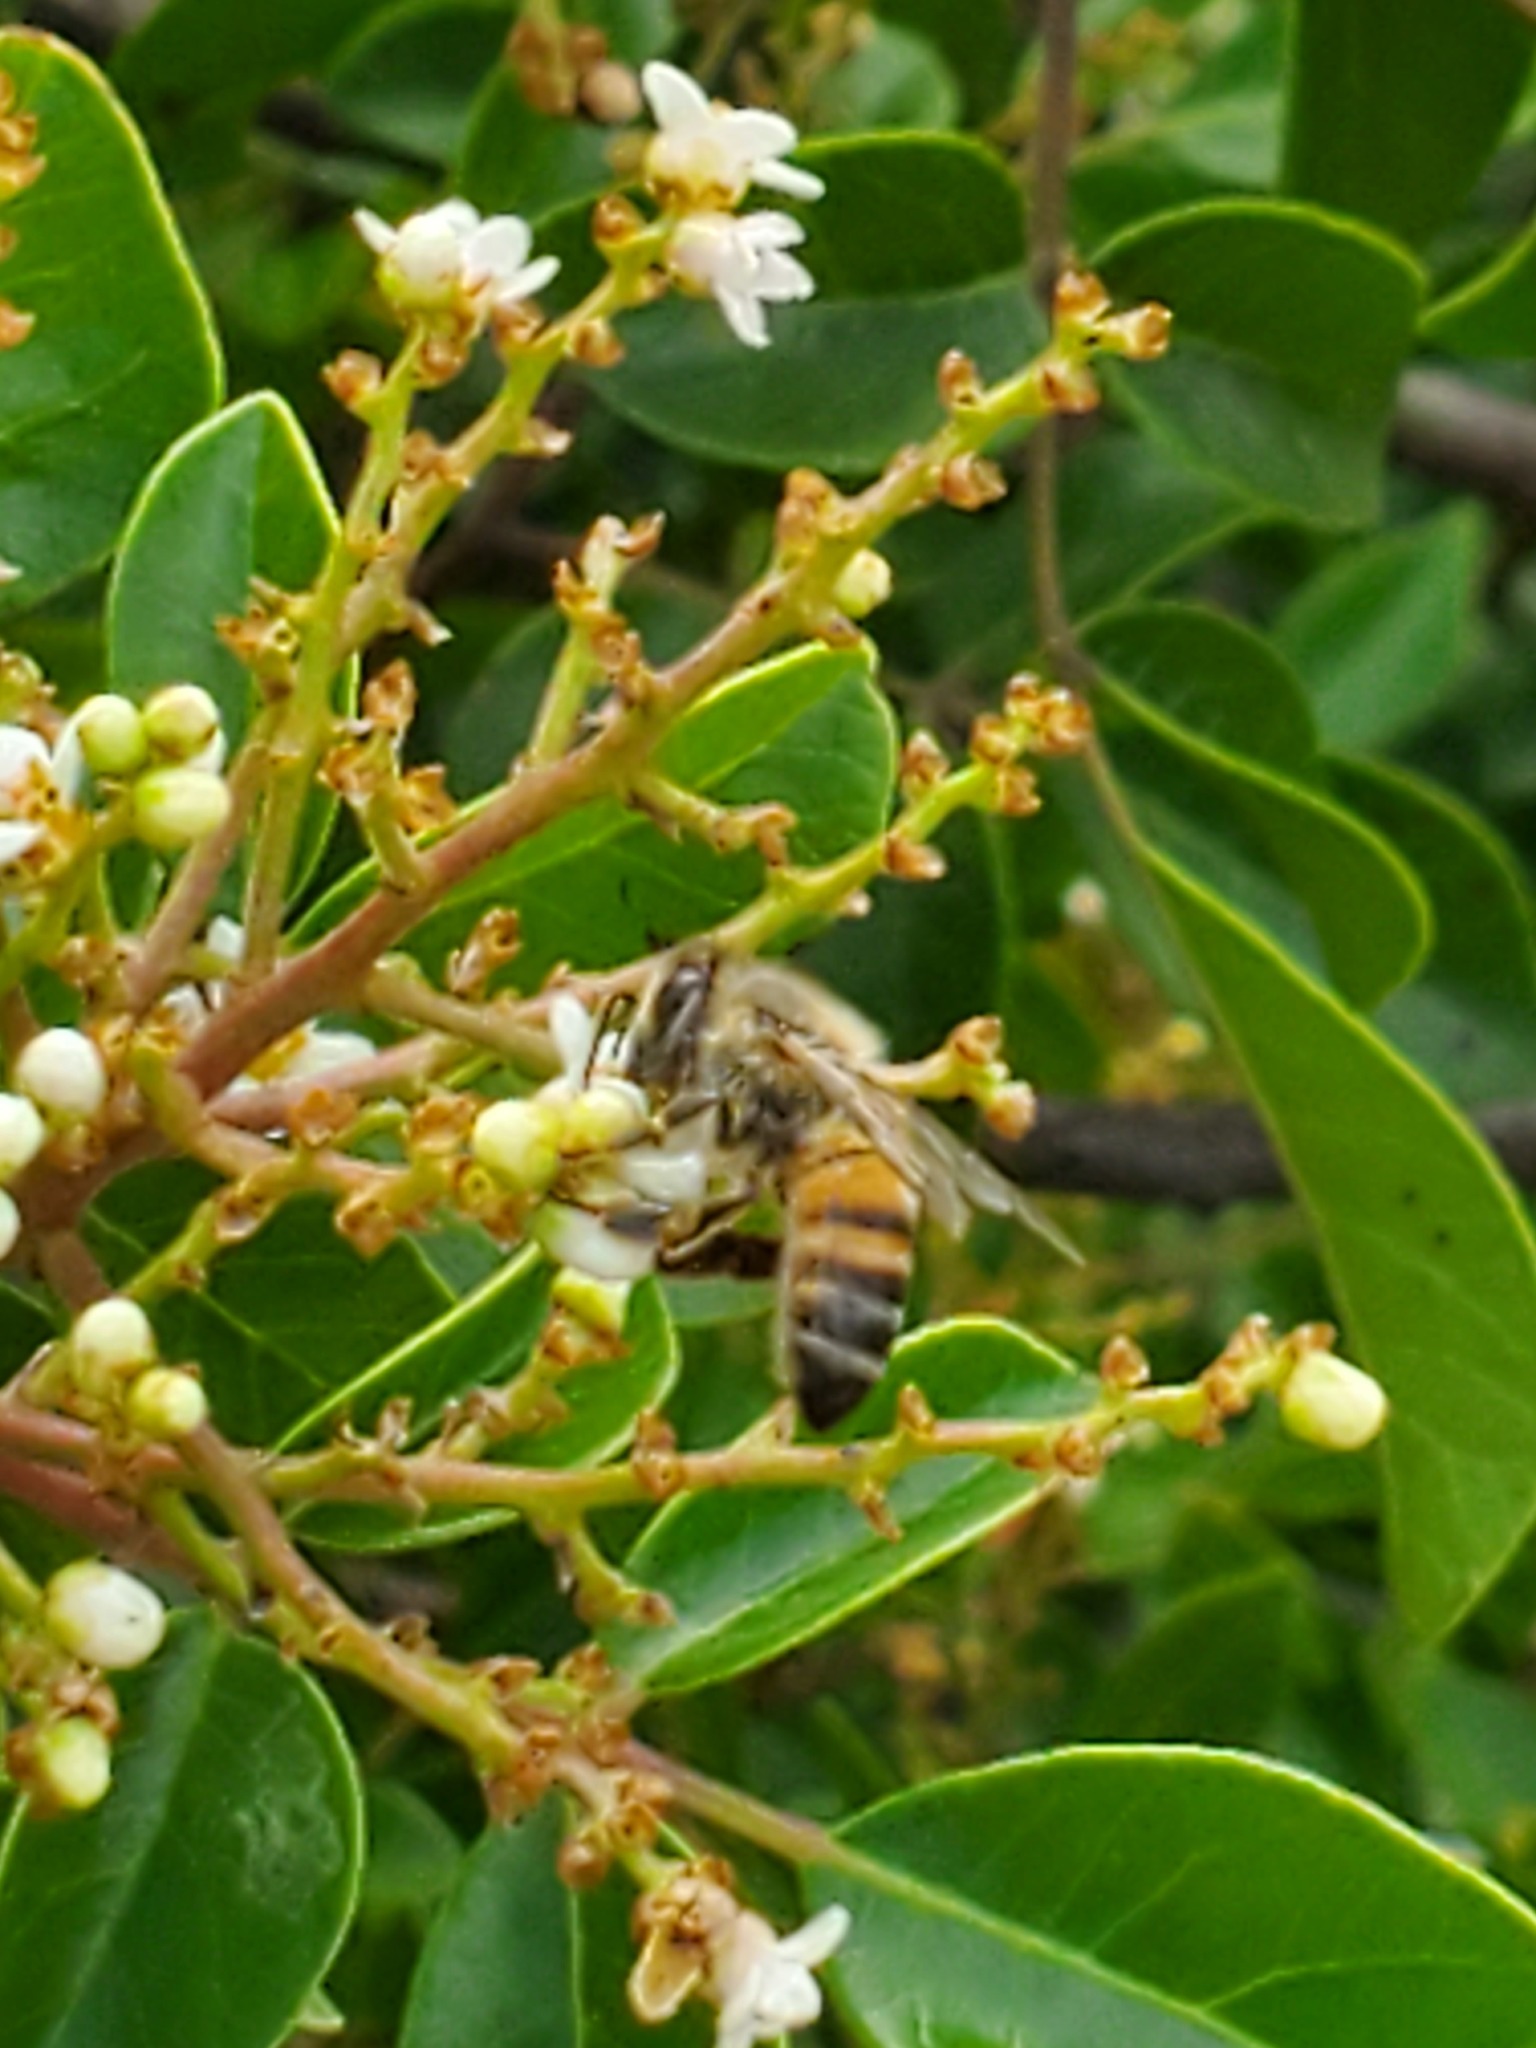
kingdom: Animalia
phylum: Arthropoda
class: Insecta
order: Hymenoptera
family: Apidae
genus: Apis
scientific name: Apis mellifera
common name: Honey bee
